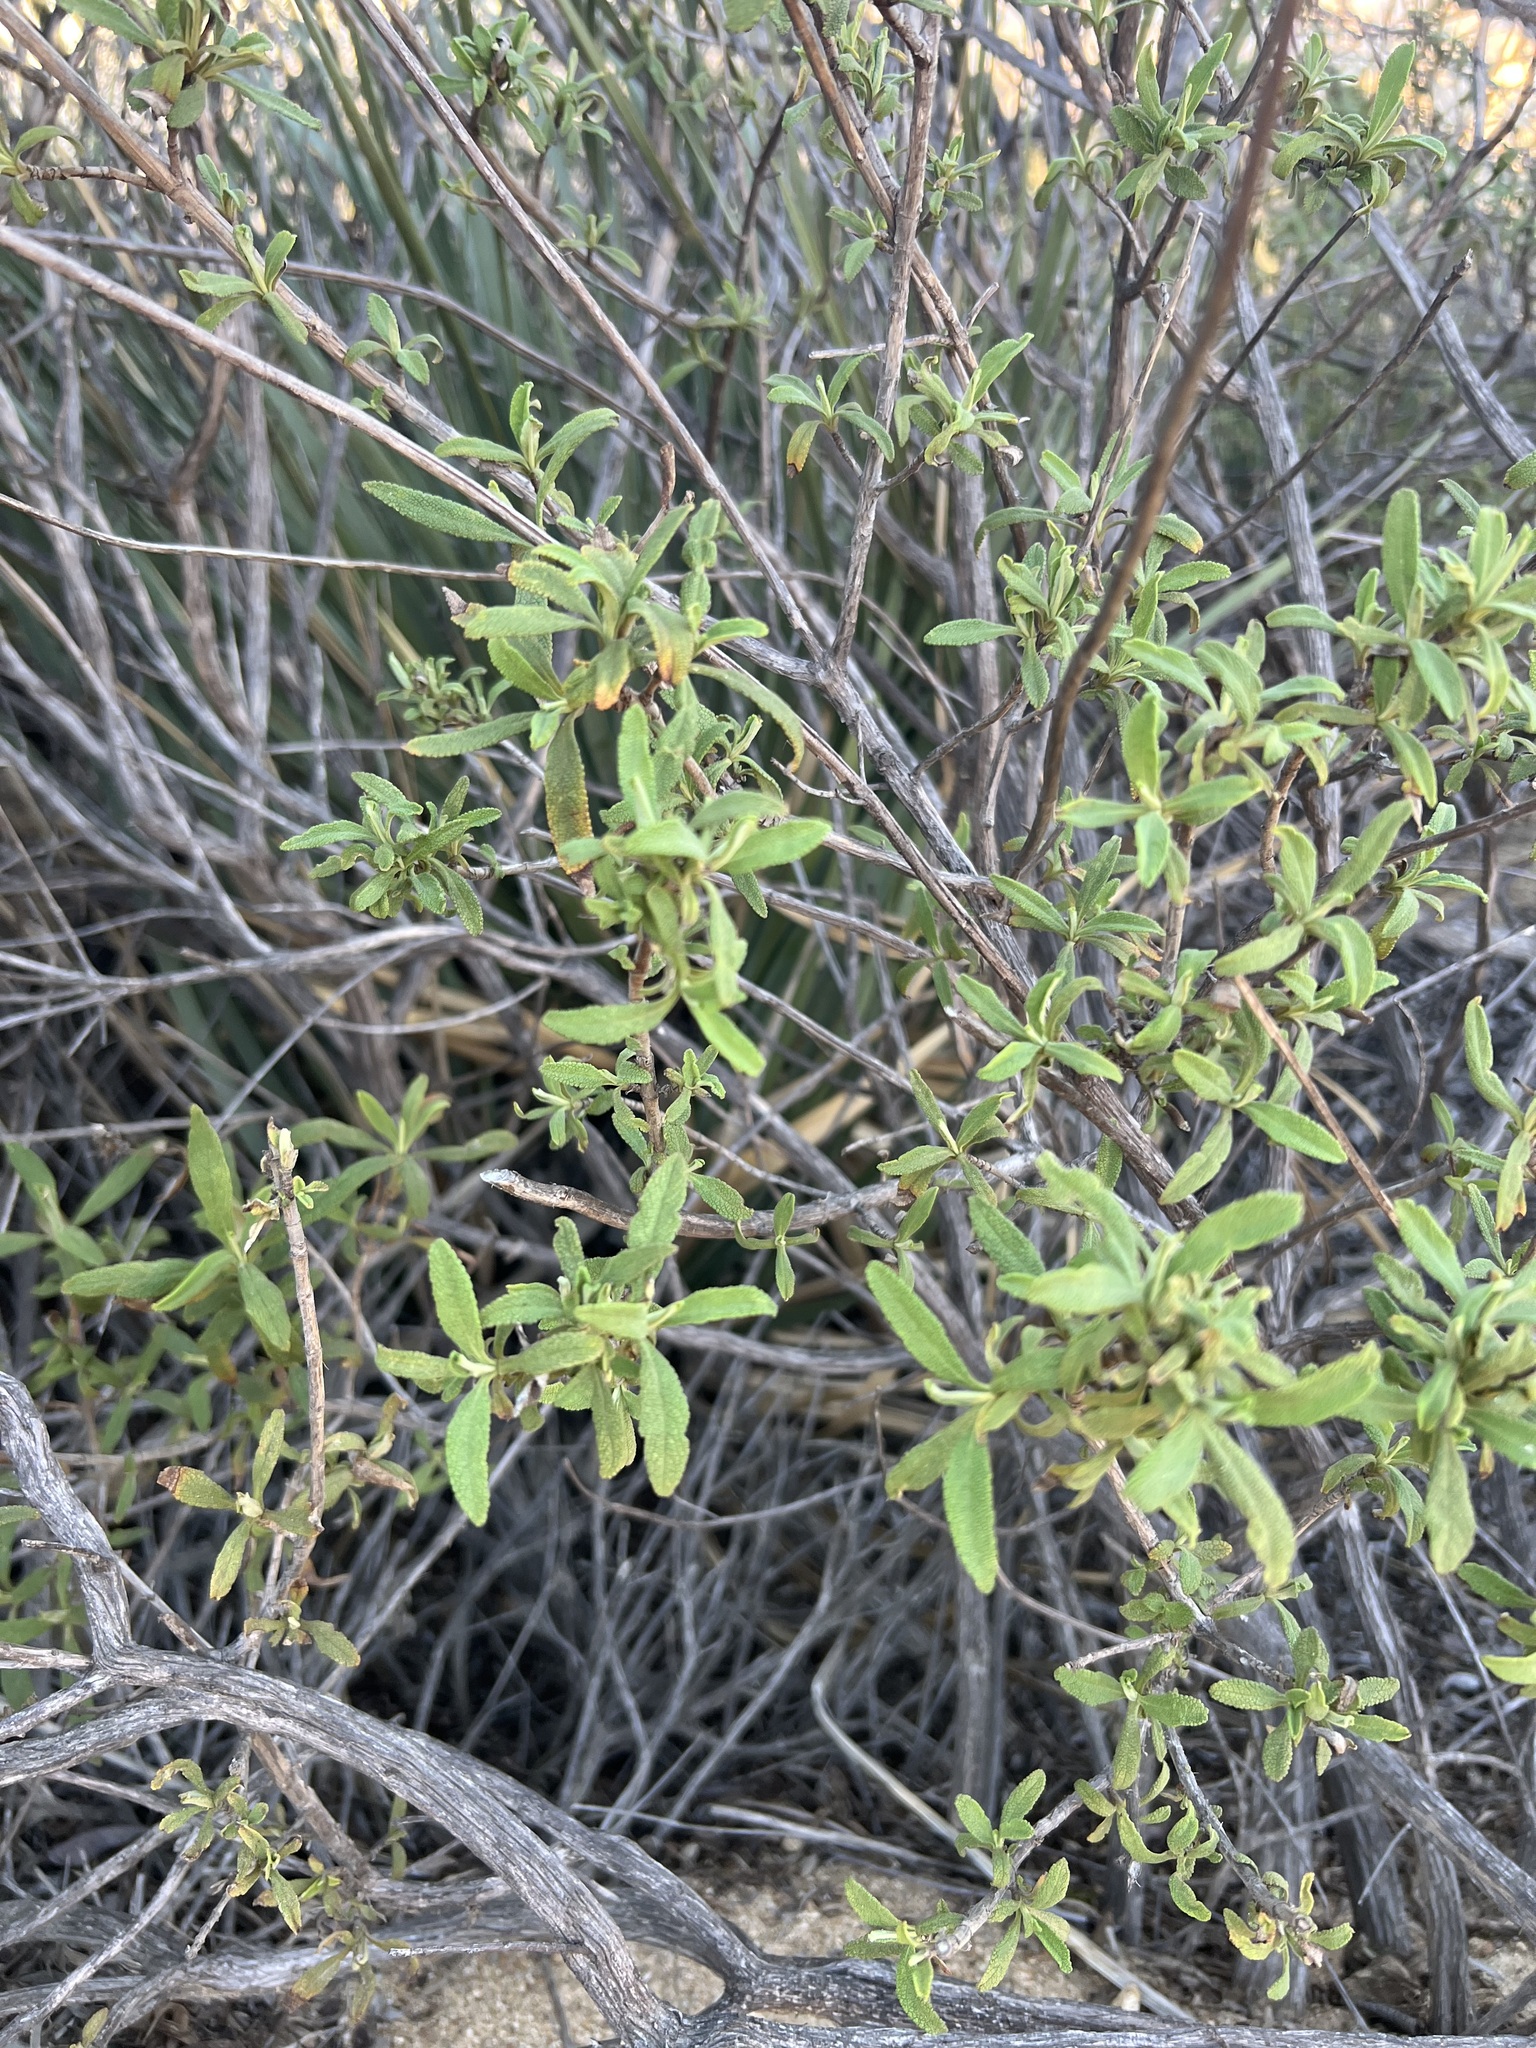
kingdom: Plantae
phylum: Tracheophyta
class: Magnoliopsida
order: Lamiales
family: Lamiaceae
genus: Salvia
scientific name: Salvia mellifera
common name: Black sage
